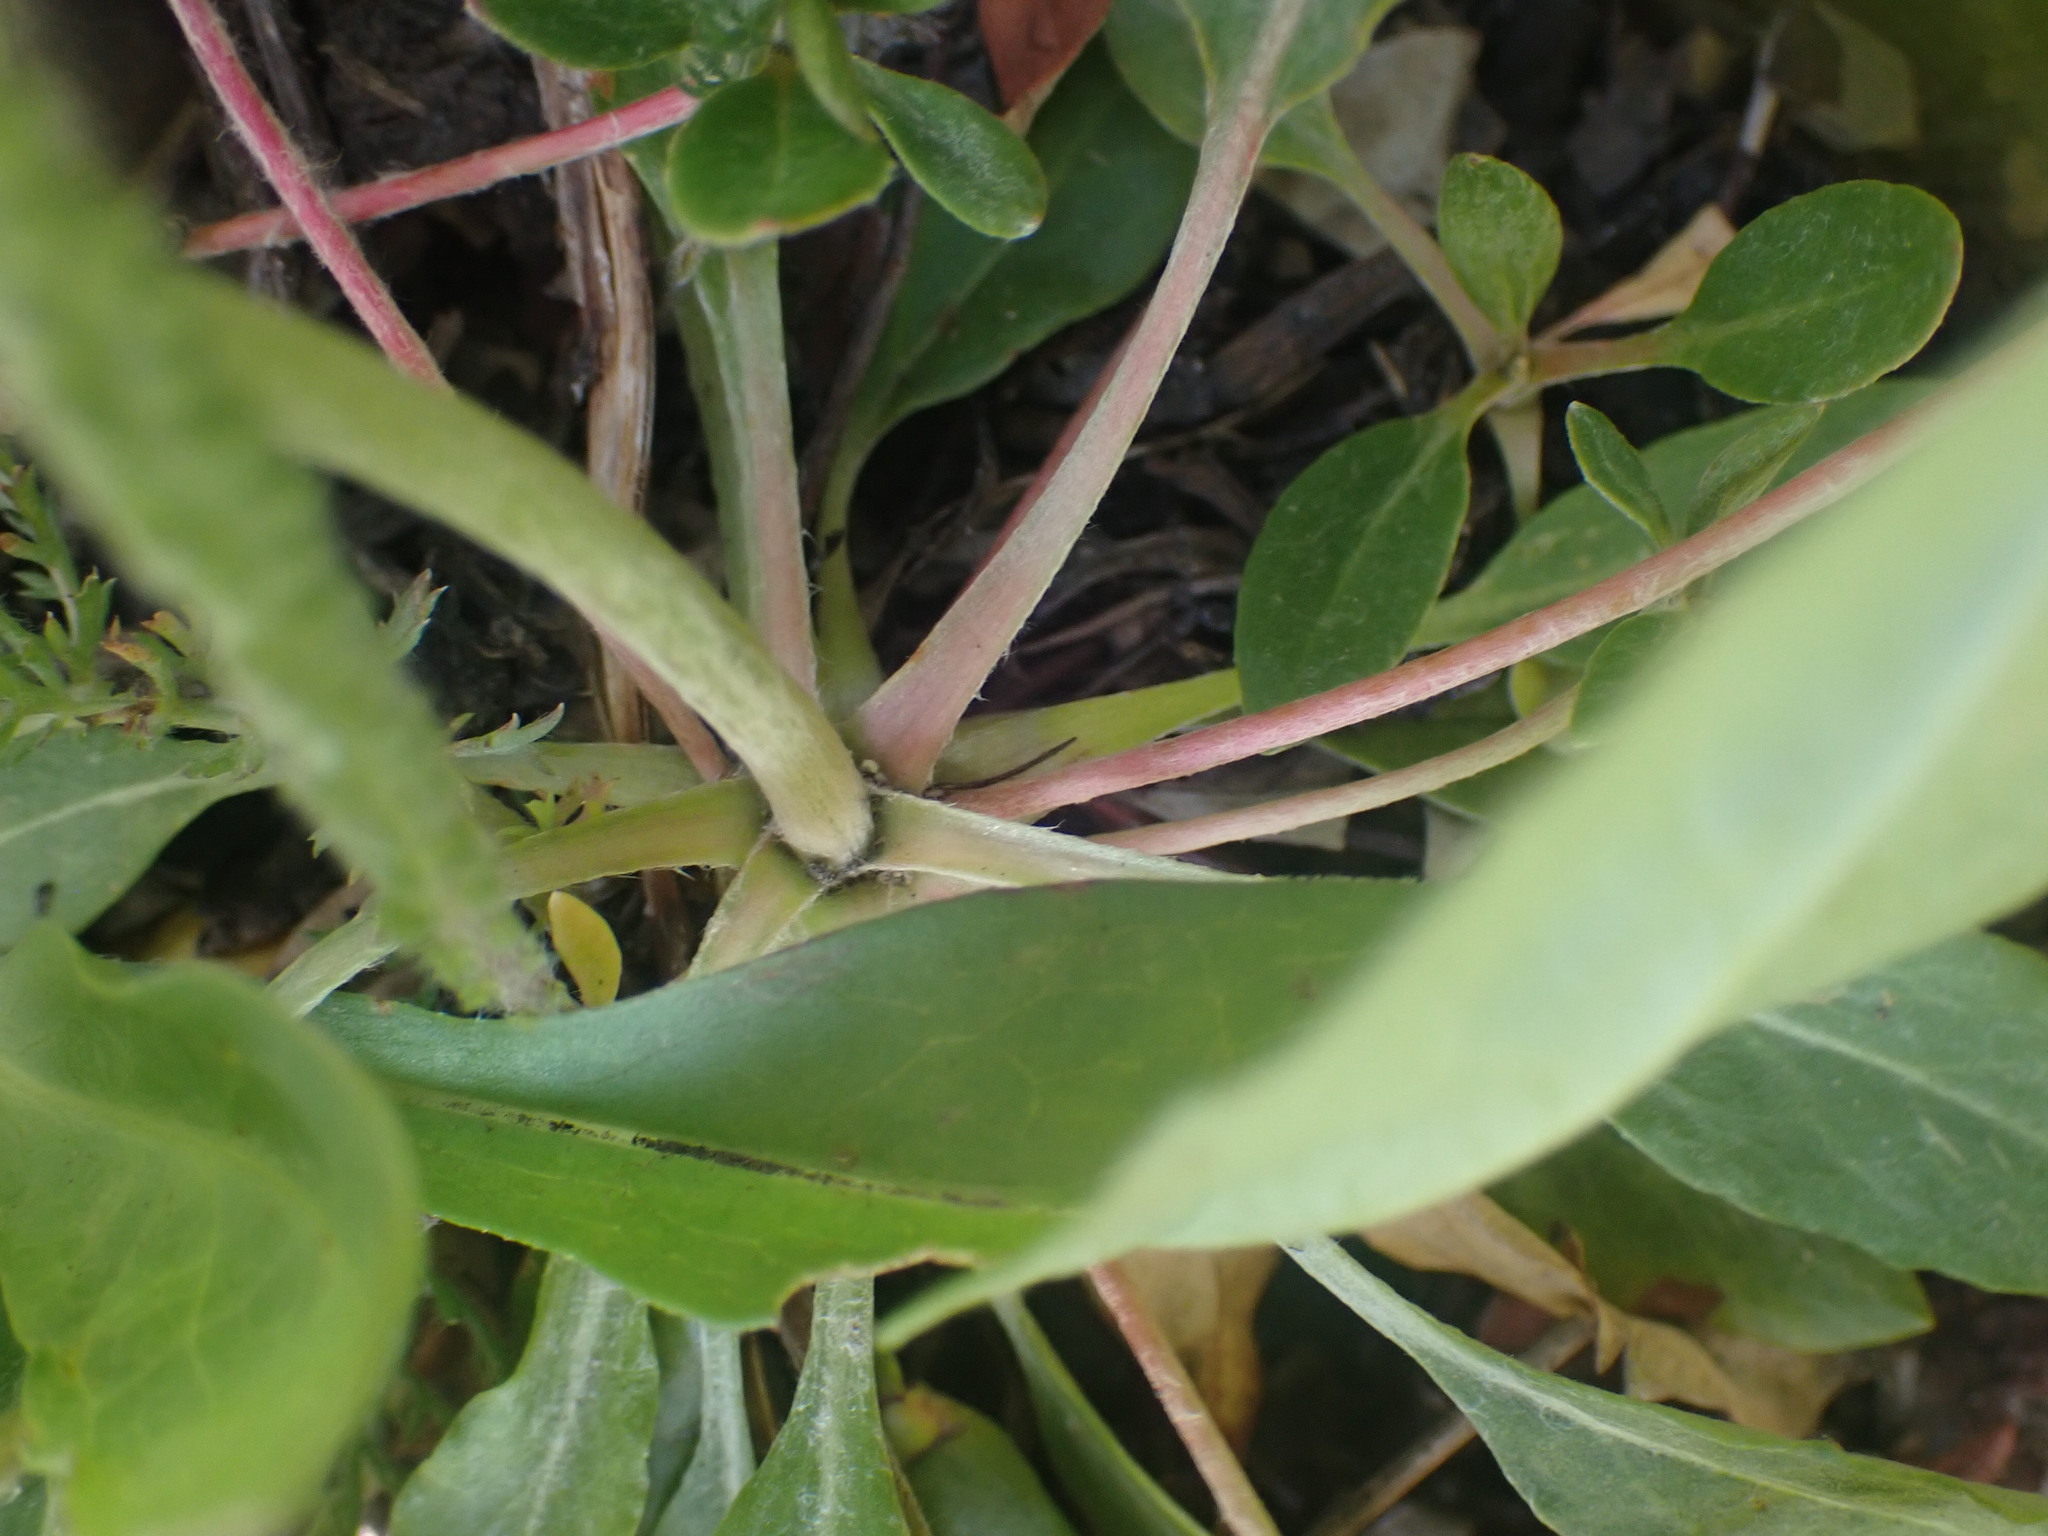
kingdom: Plantae
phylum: Tracheophyta
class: Magnoliopsida
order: Caryophyllales
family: Polygonaceae
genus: Eriogonum
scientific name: Eriogonum umbellatum
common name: Sulfur-buckwheat
